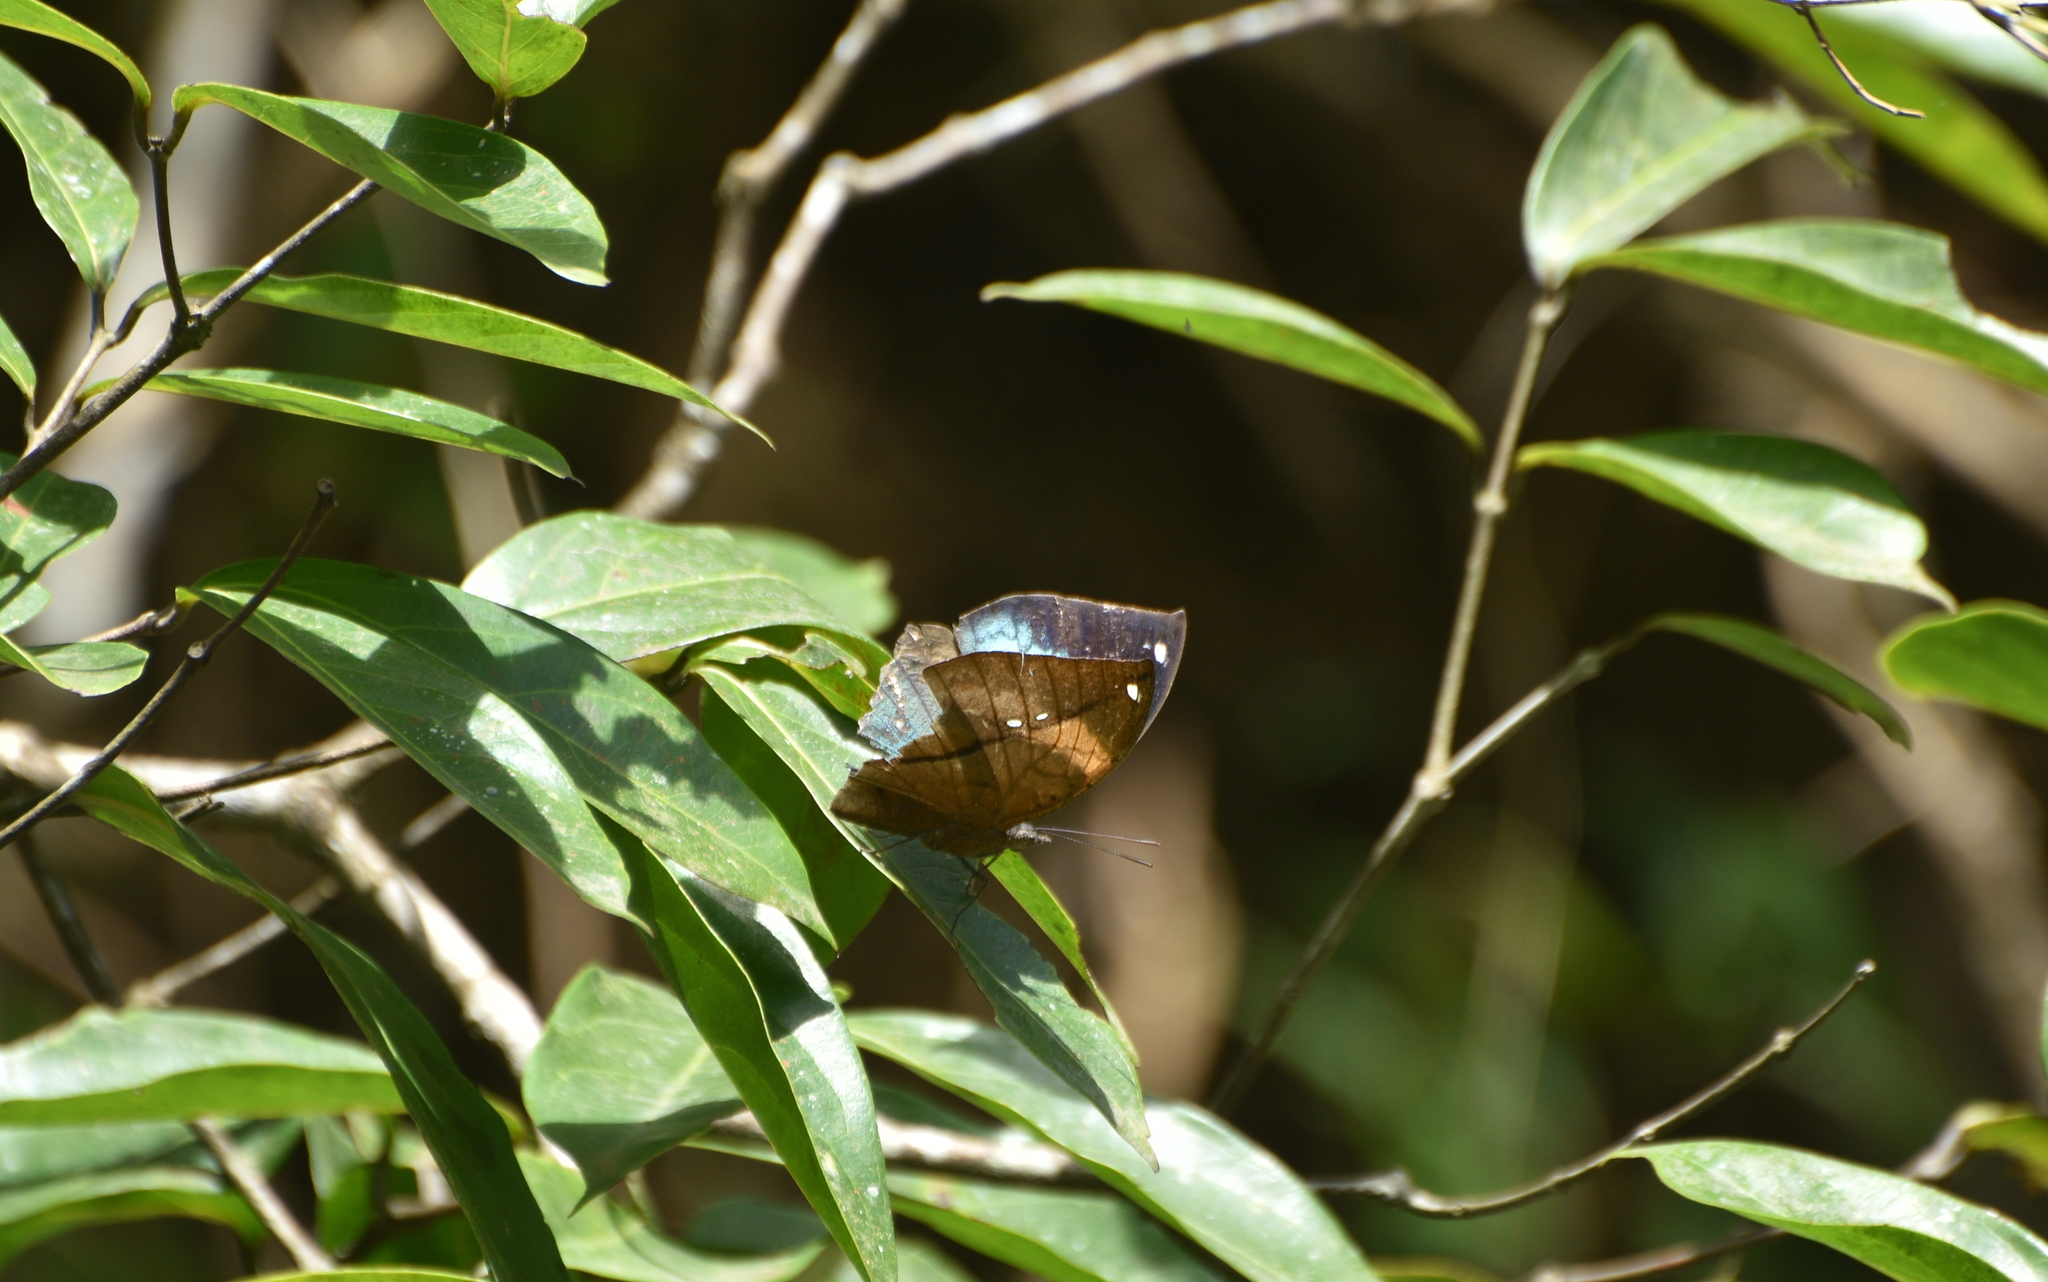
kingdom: Animalia
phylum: Arthropoda
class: Insecta
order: Lepidoptera
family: Nymphalidae
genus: Kallima
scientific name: Kallima horsfieldii
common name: Sahyadri blue oakleaf
